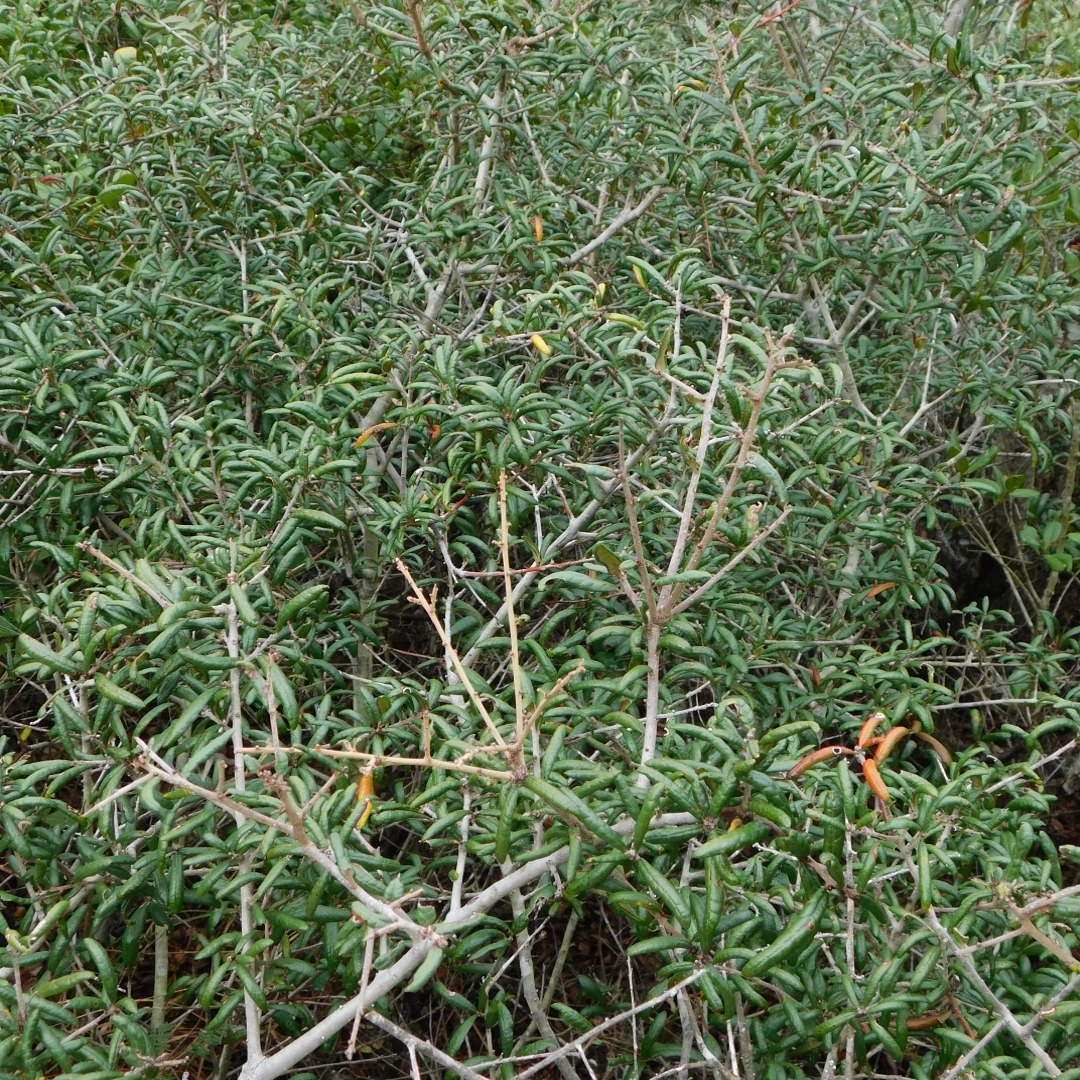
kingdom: Plantae
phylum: Tracheophyta
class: Magnoliopsida
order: Fagales
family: Fagaceae
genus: Quercus
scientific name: Quercus geminata
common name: Sand live oak
